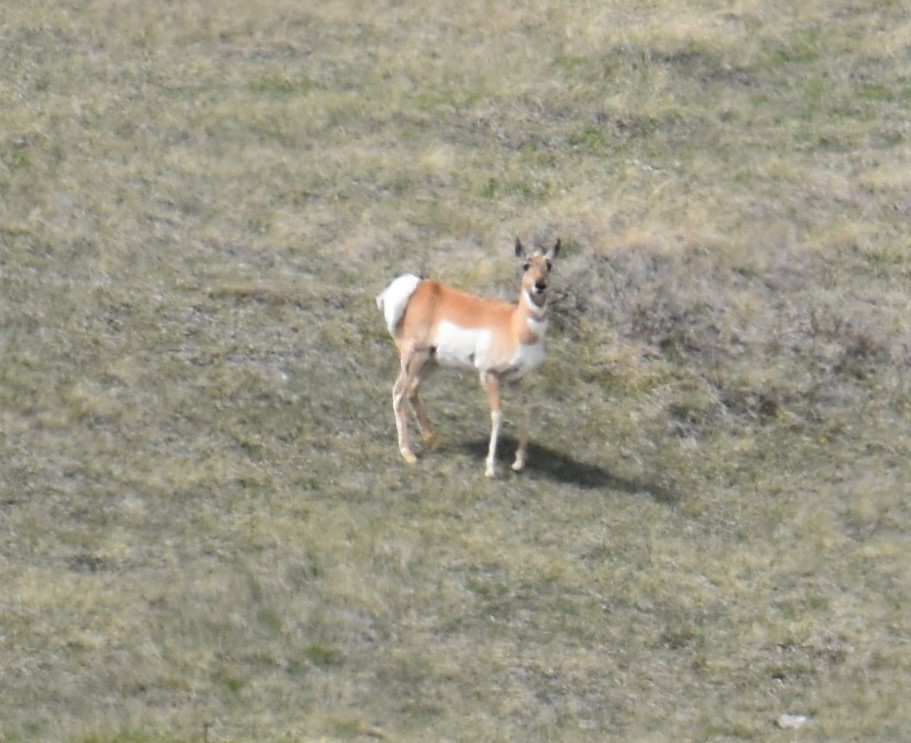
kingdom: Animalia
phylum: Chordata
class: Mammalia
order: Artiodactyla
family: Antilocapridae
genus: Antilocapra
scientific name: Antilocapra americana
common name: Pronghorn
